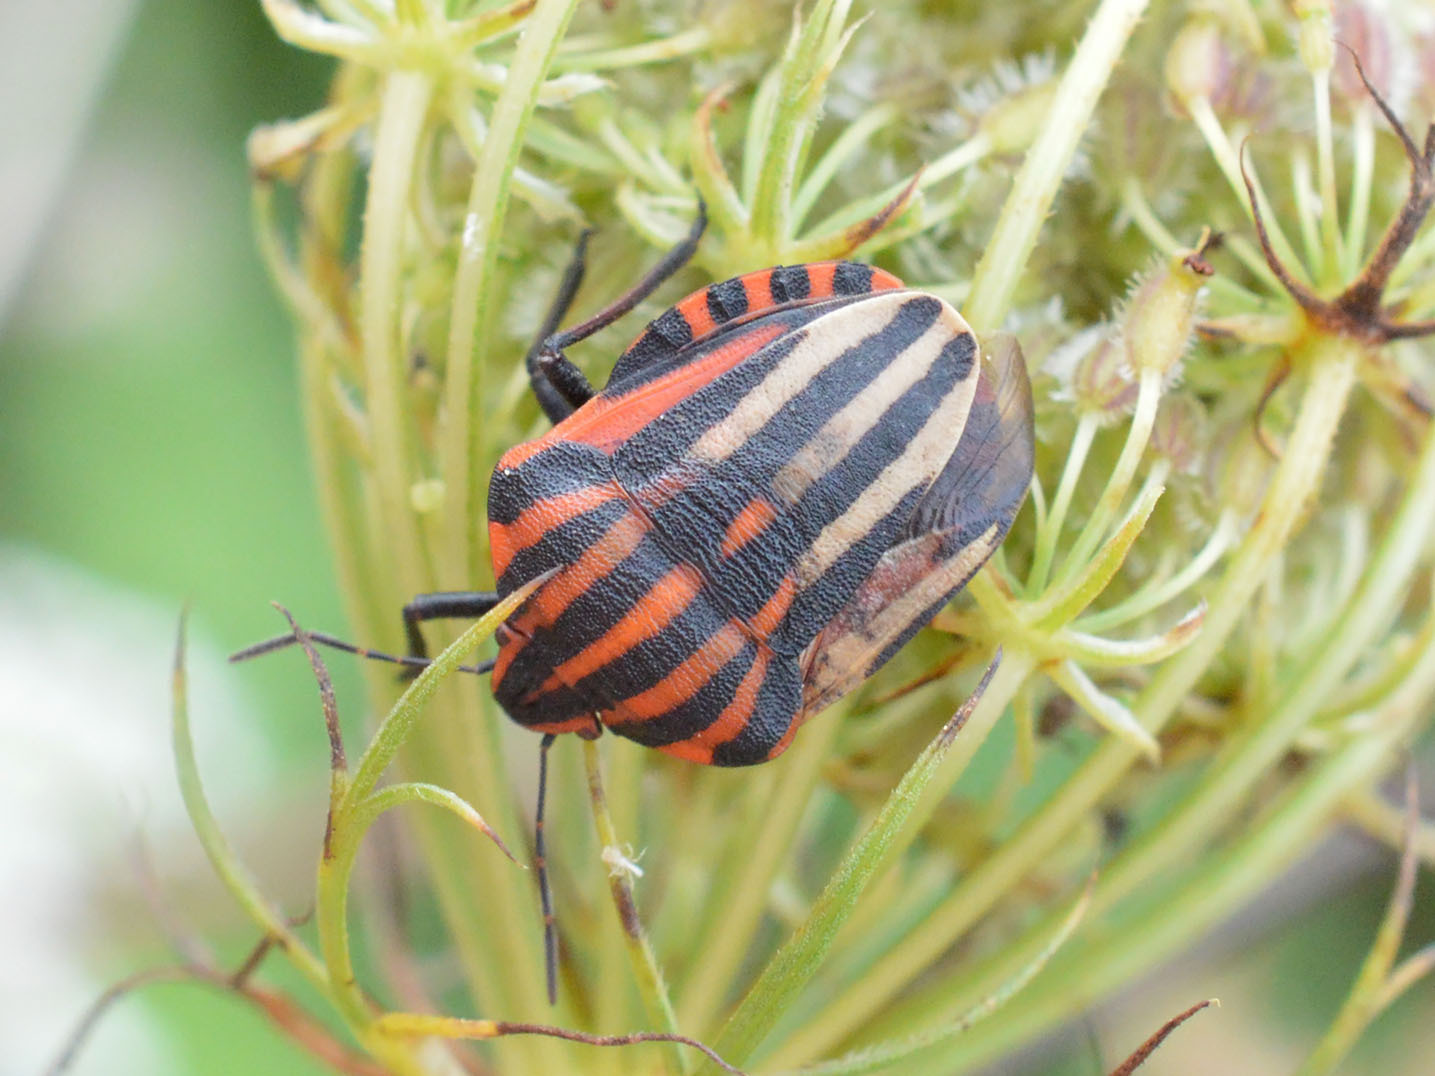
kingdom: Animalia
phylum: Arthropoda
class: Insecta
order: Hemiptera
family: Pentatomidae
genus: Graphosoma
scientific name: Graphosoma italicum
